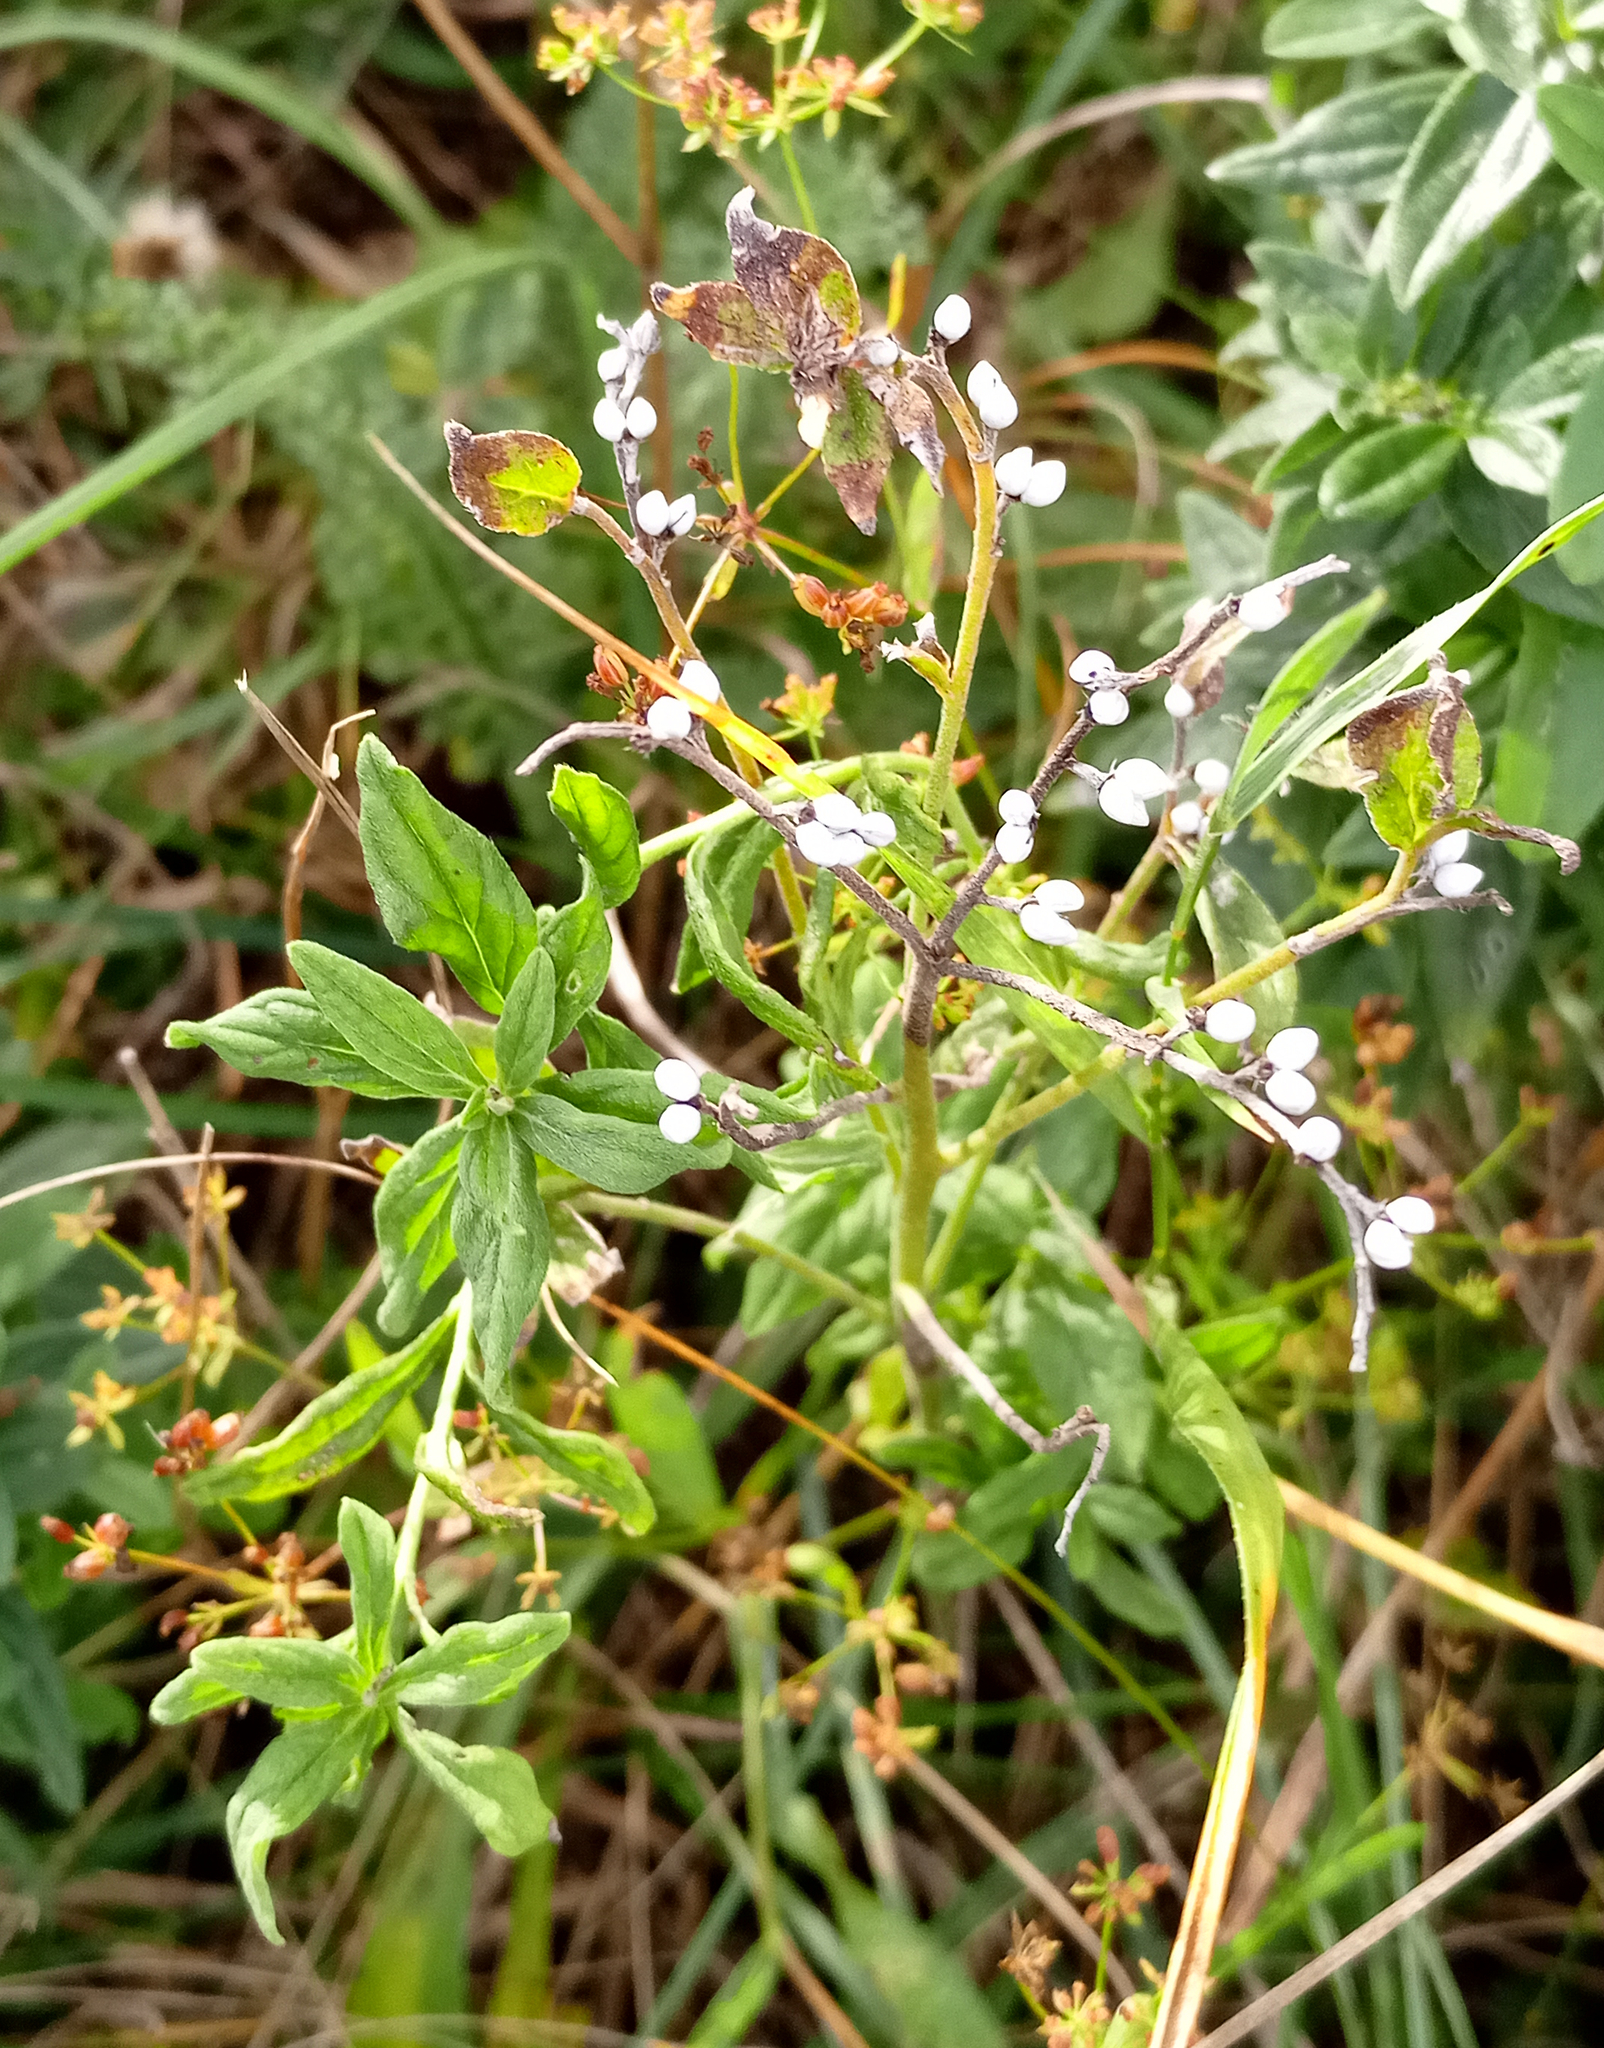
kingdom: Plantae
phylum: Tracheophyta
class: Magnoliopsida
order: Boraginales
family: Boraginaceae
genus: Lithospermum
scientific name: Lithospermum officinale
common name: Common gromwell
